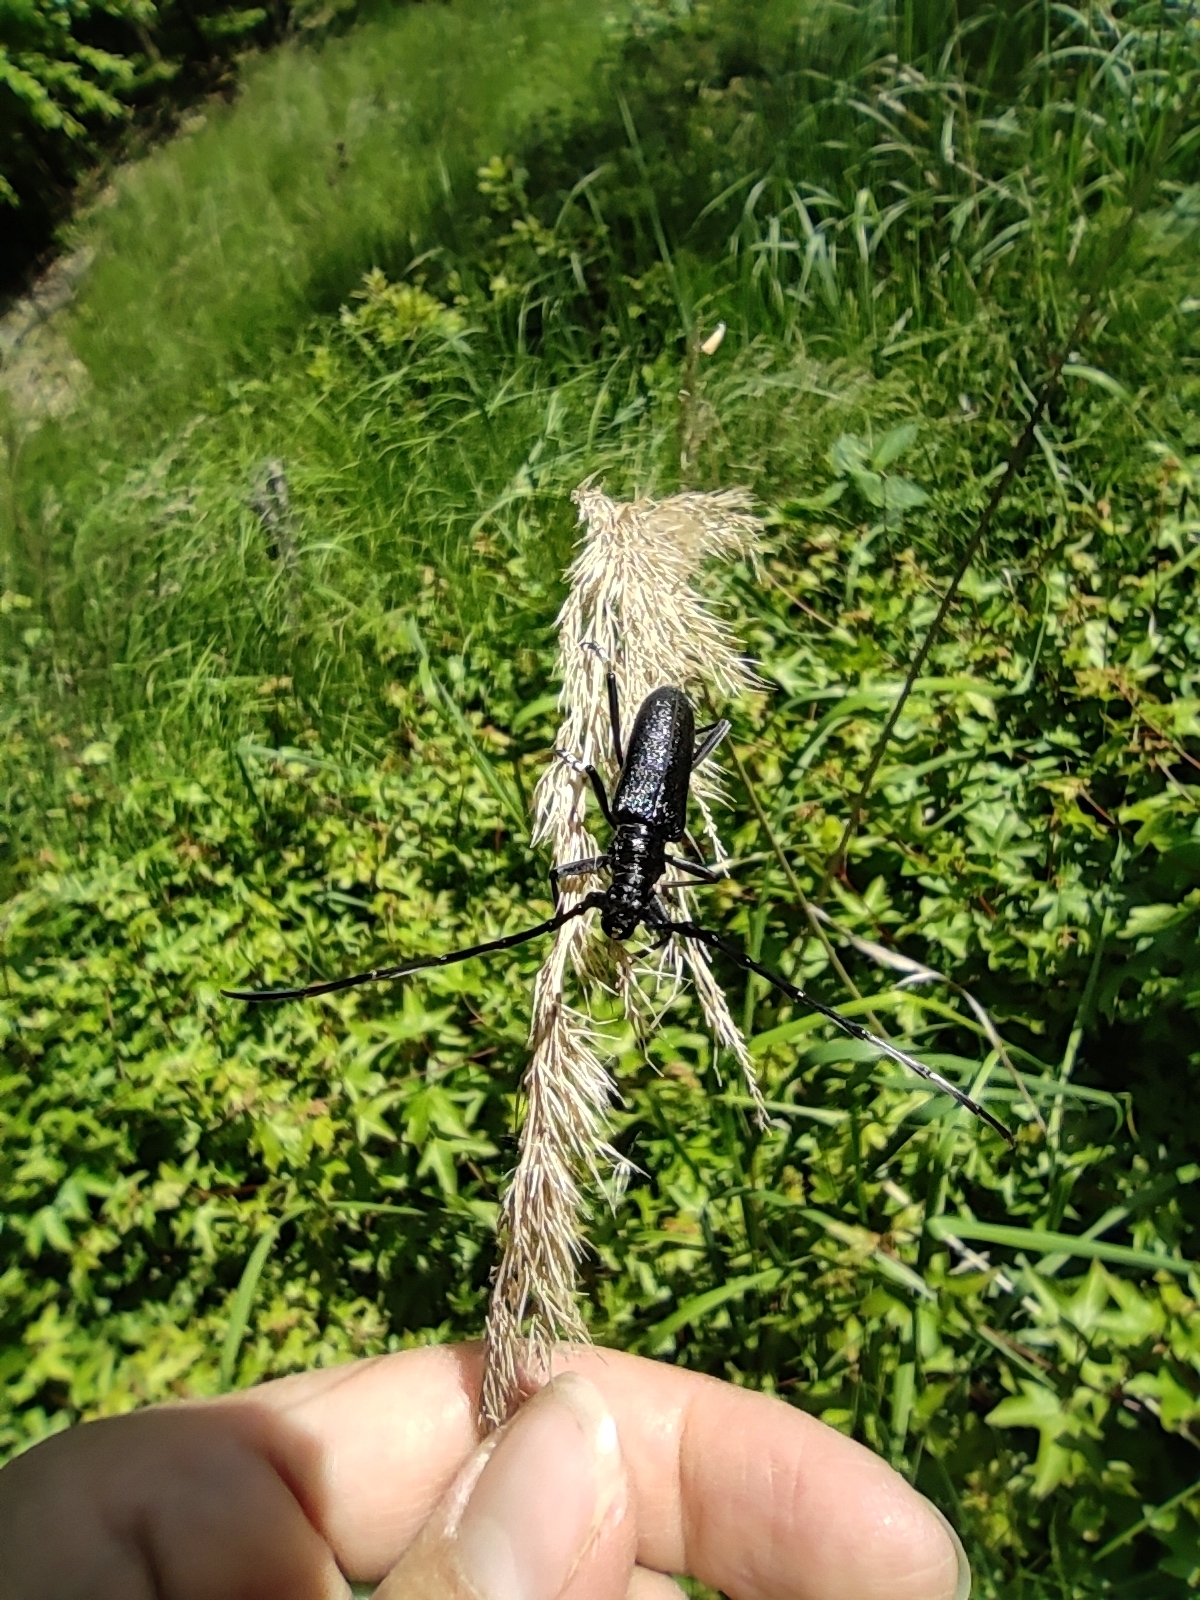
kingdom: Animalia
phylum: Arthropoda
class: Insecta
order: Coleoptera
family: Cerambycidae
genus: Cerambyx
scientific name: Cerambyx scopolii
